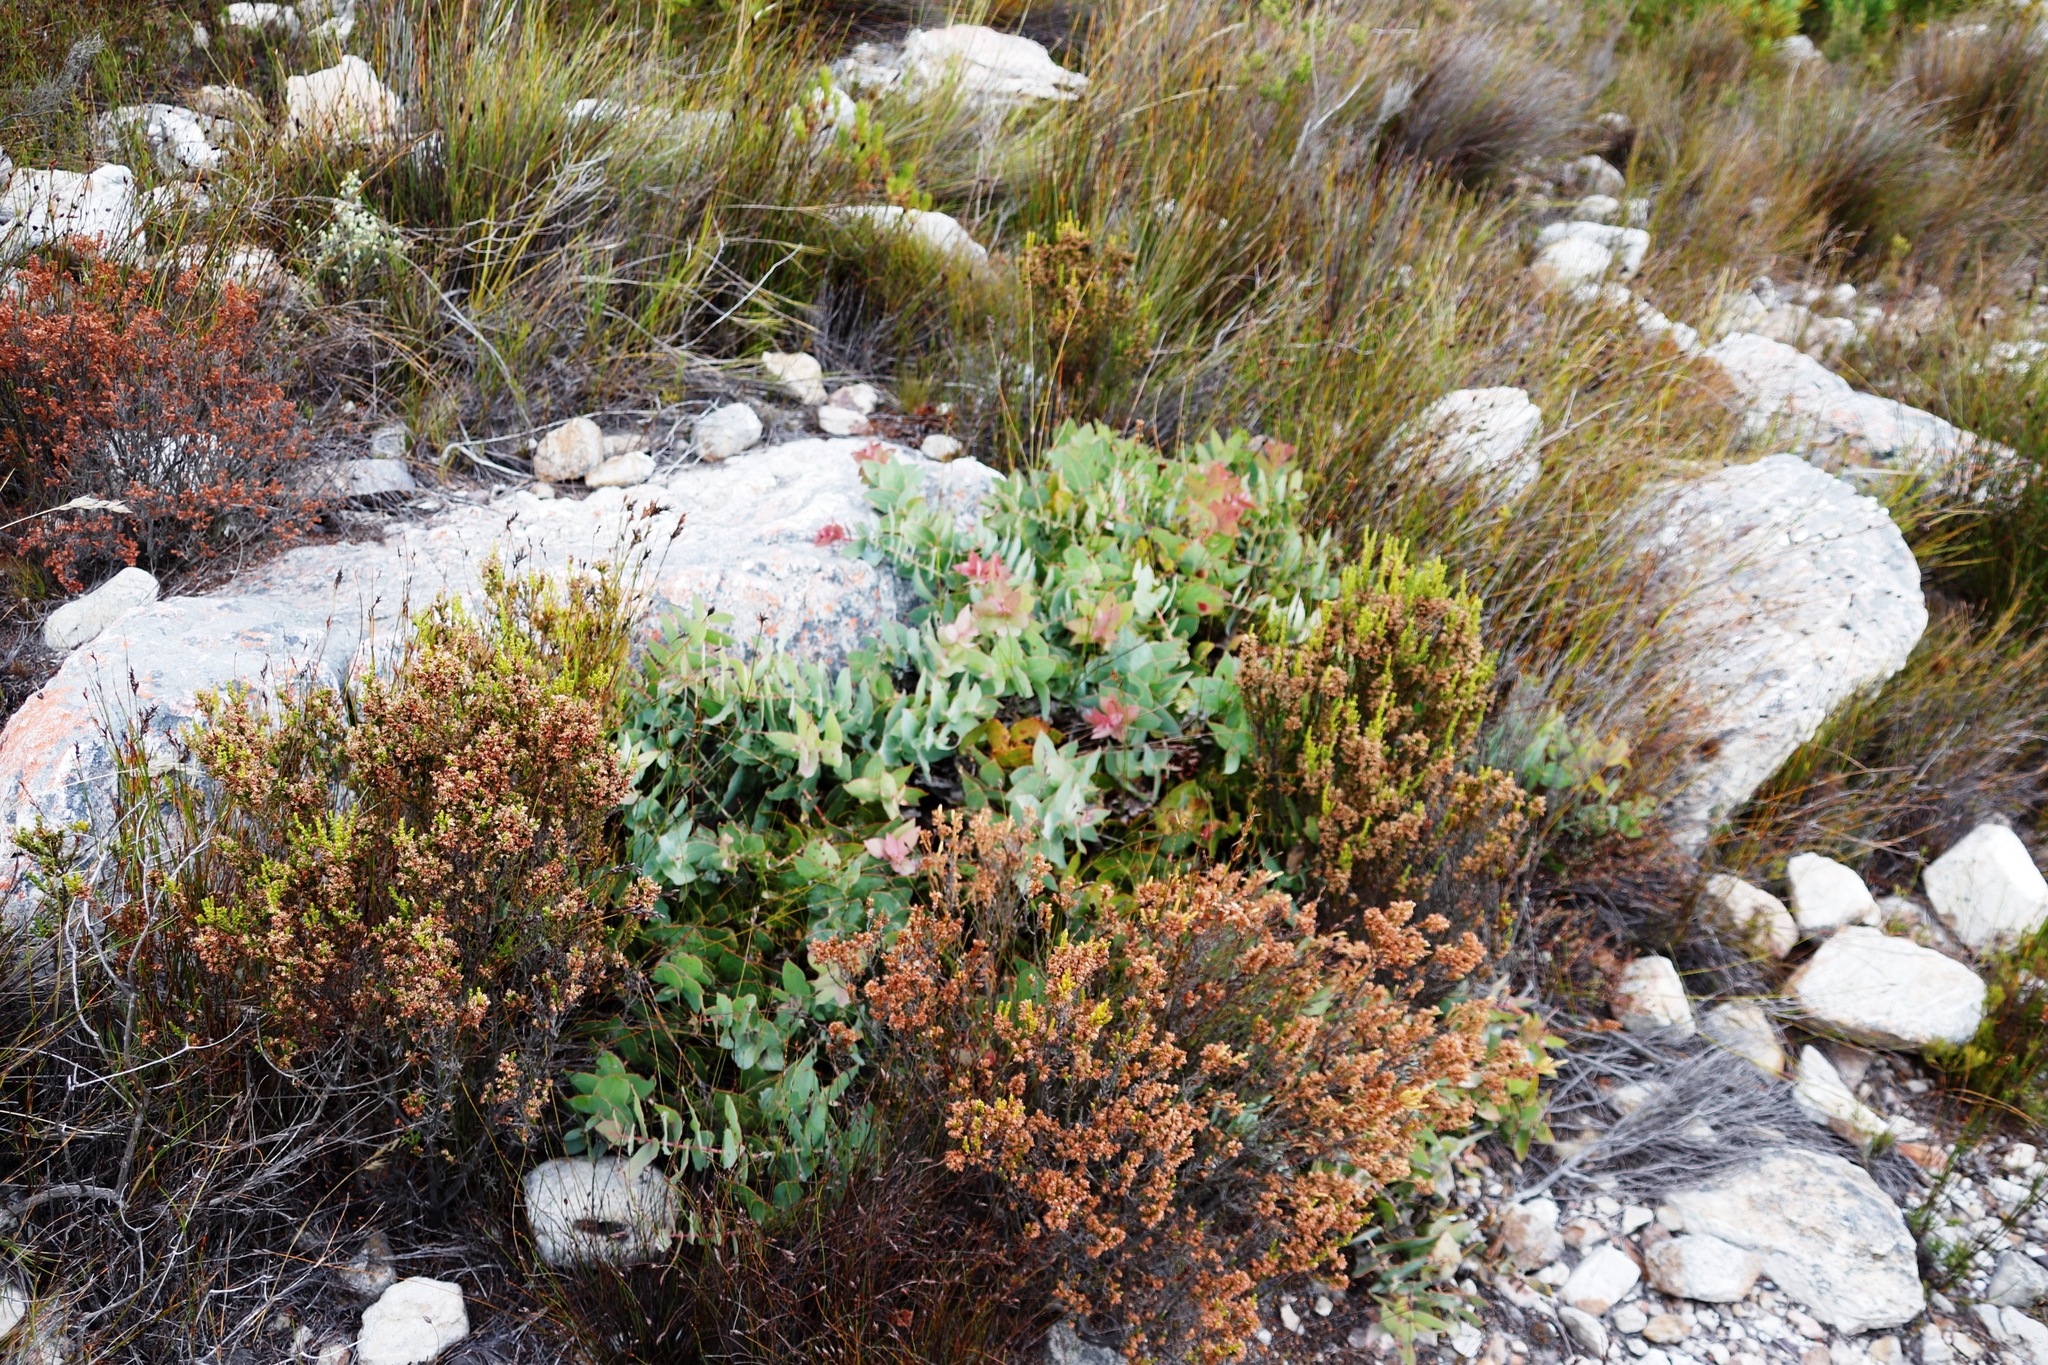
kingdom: Plantae
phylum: Tracheophyta
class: Magnoliopsida
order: Proteales
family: Proteaceae
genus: Protea
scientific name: Protea amplexicaulis
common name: Clasping-leaf sugarbush
